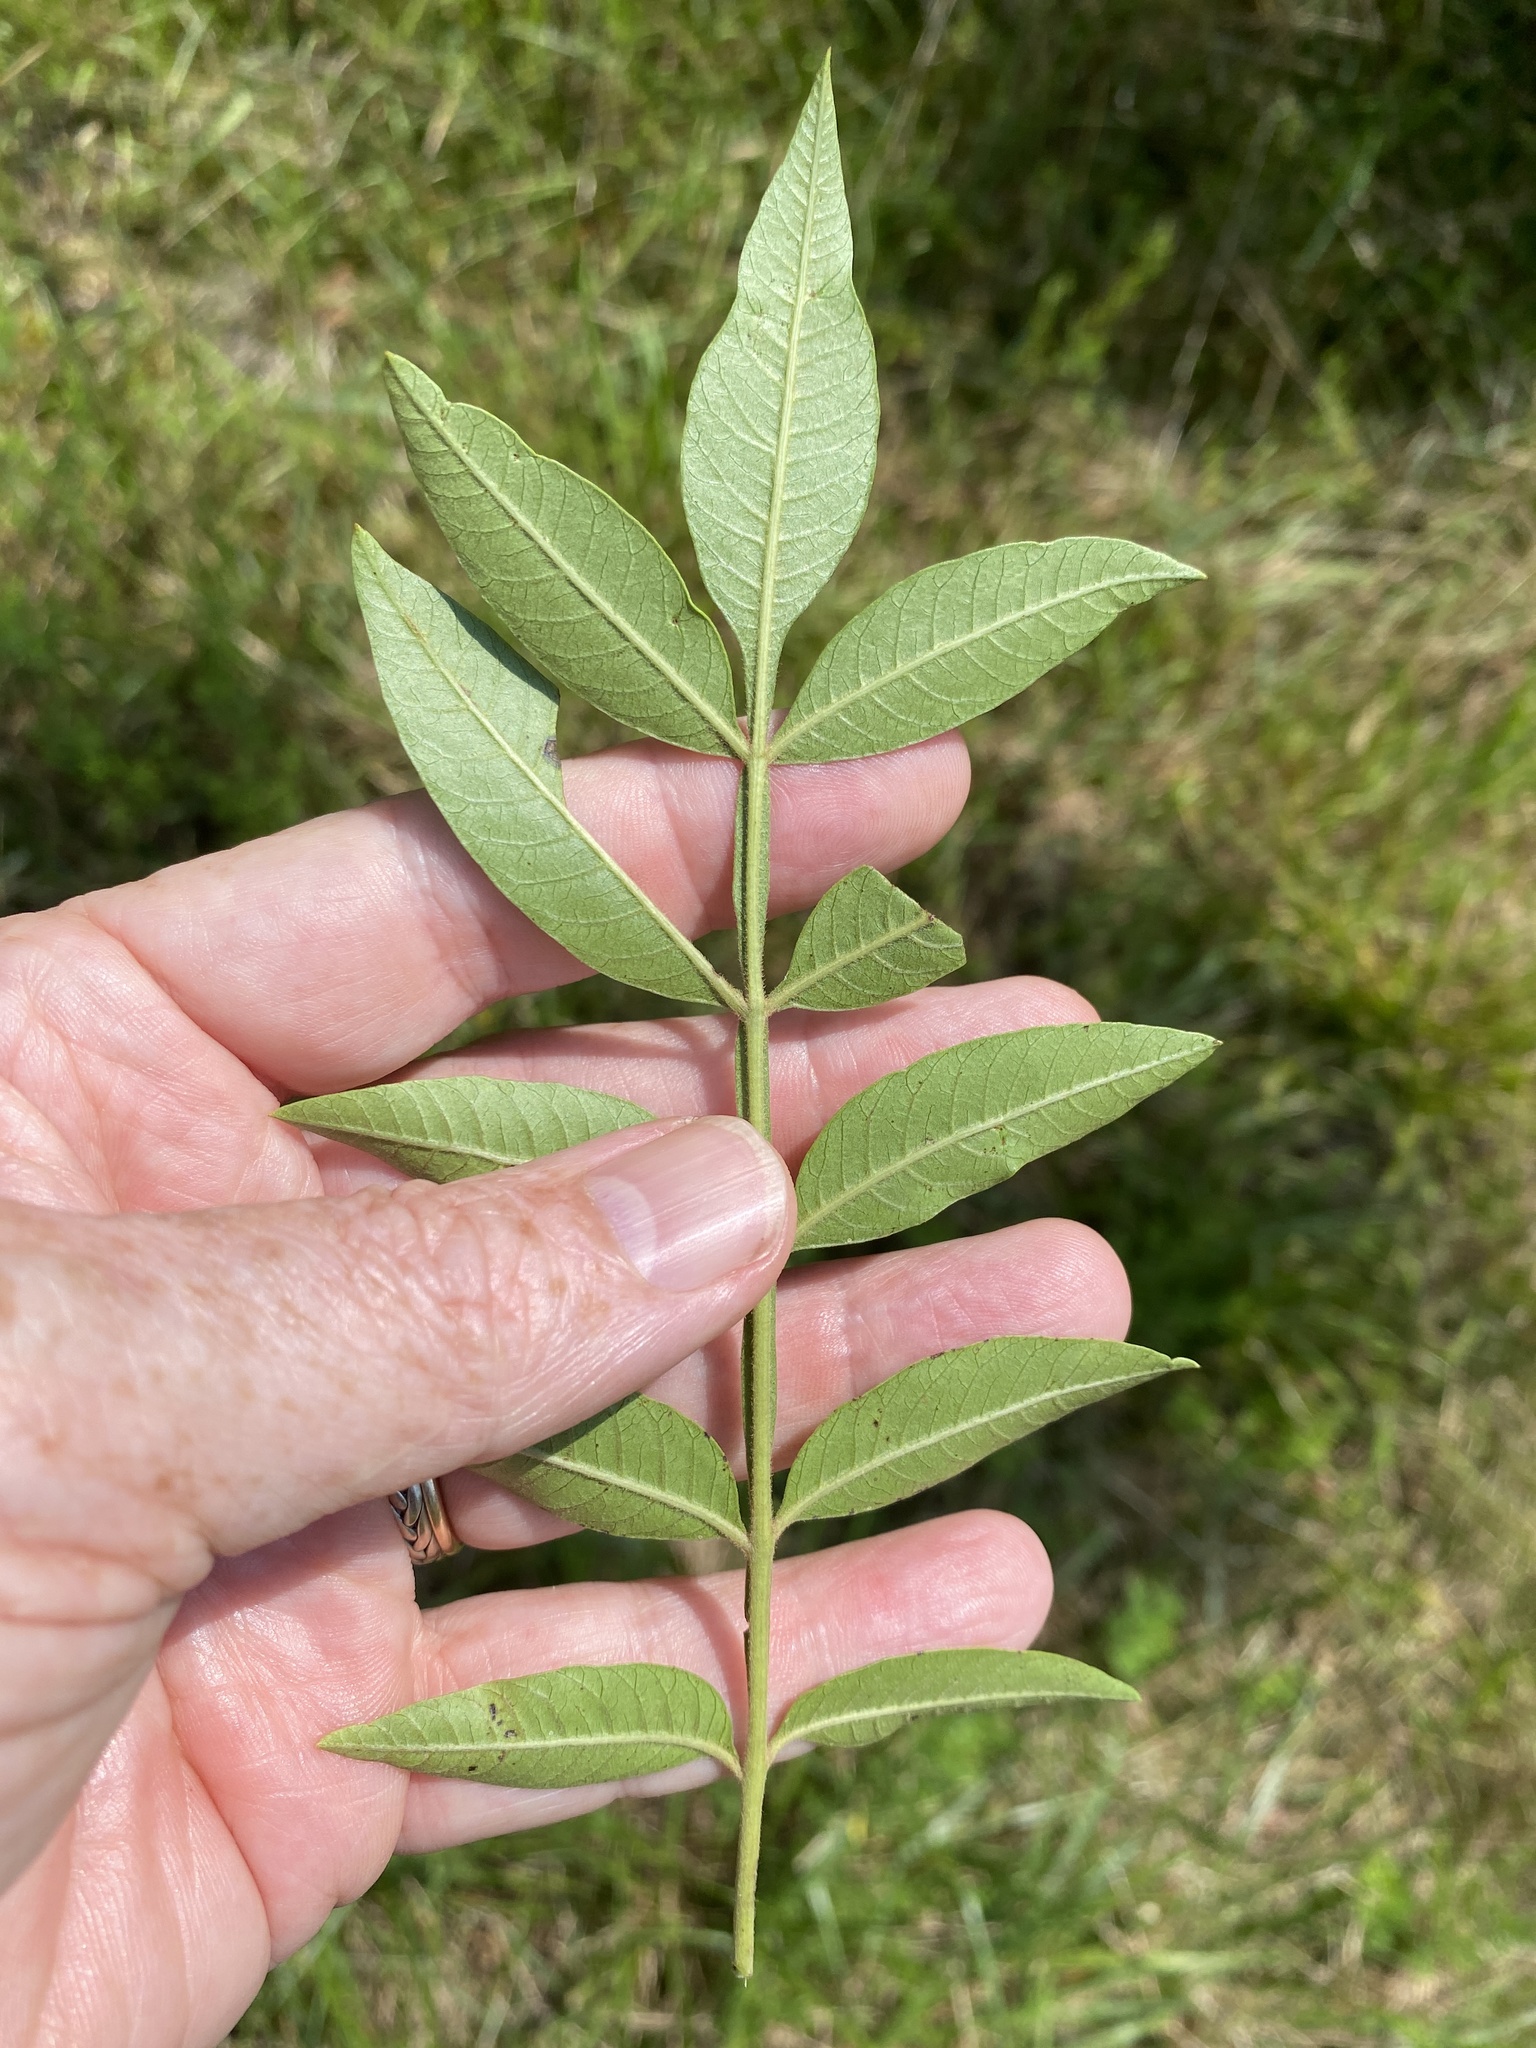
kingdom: Plantae
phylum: Tracheophyta
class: Magnoliopsida
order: Sapindales
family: Anacardiaceae
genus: Rhus
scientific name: Rhus copallina
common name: Shining sumac
